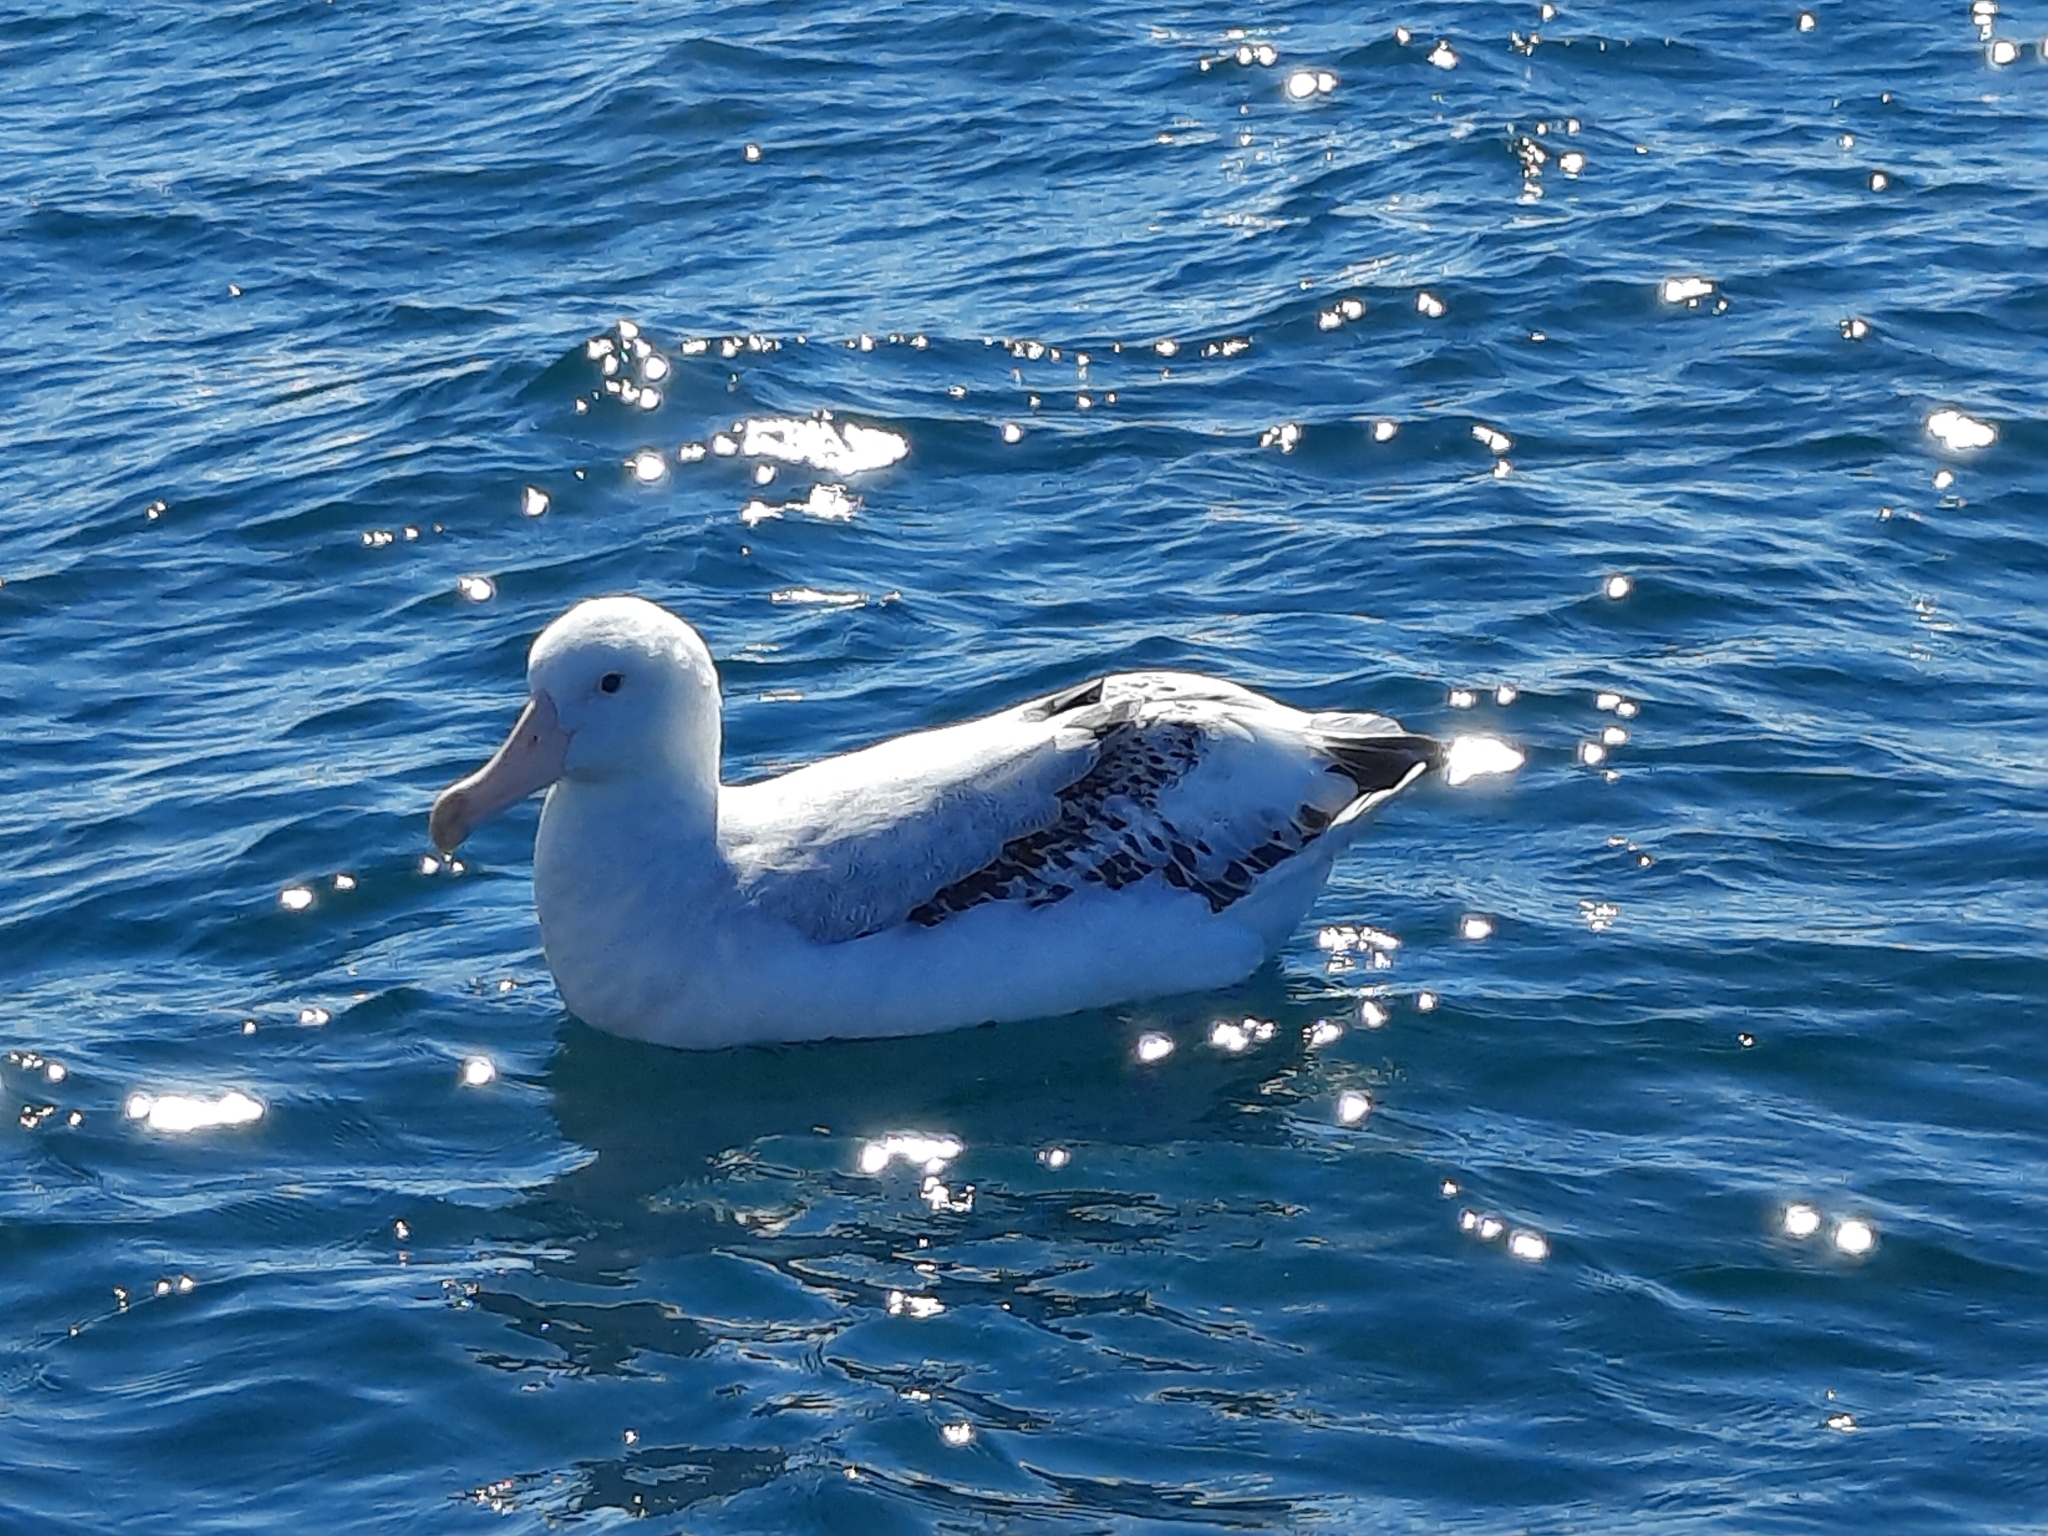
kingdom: Animalia
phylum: Chordata
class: Aves
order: Procellariiformes
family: Diomedeidae
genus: Diomedea
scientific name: Diomedea antipodensis
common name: Antipodean albatross
